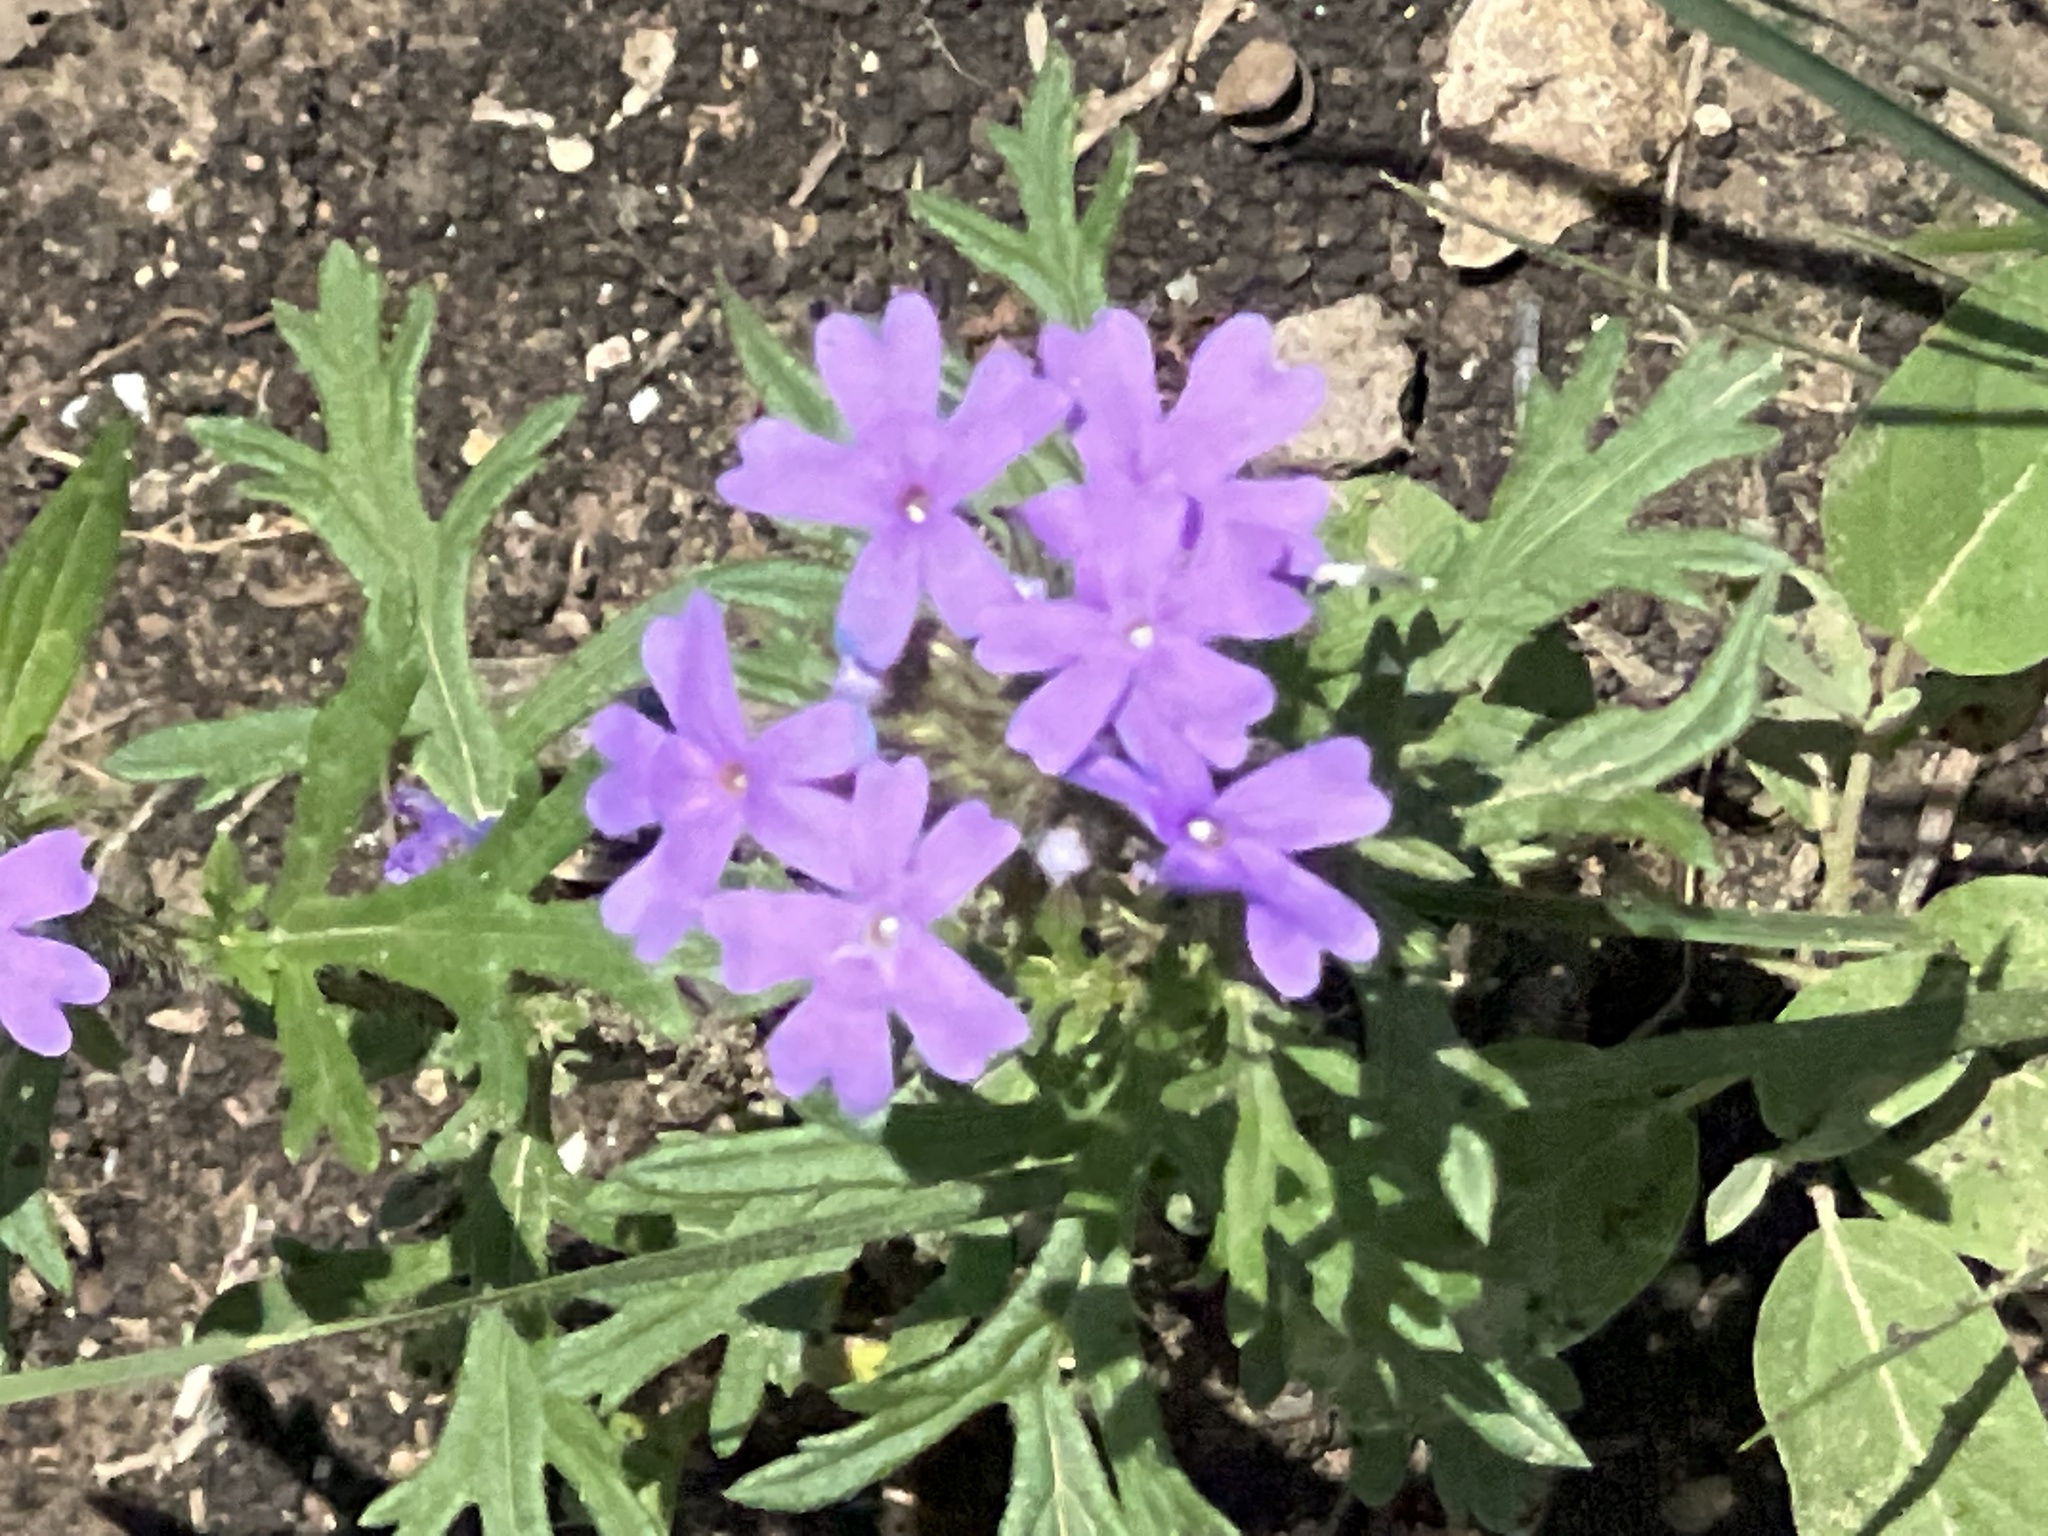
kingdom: Plantae
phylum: Tracheophyta
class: Magnoliopsida
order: Lamiales
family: Verbenaceae
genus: Verbena
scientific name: Verbena bipinnatifida
